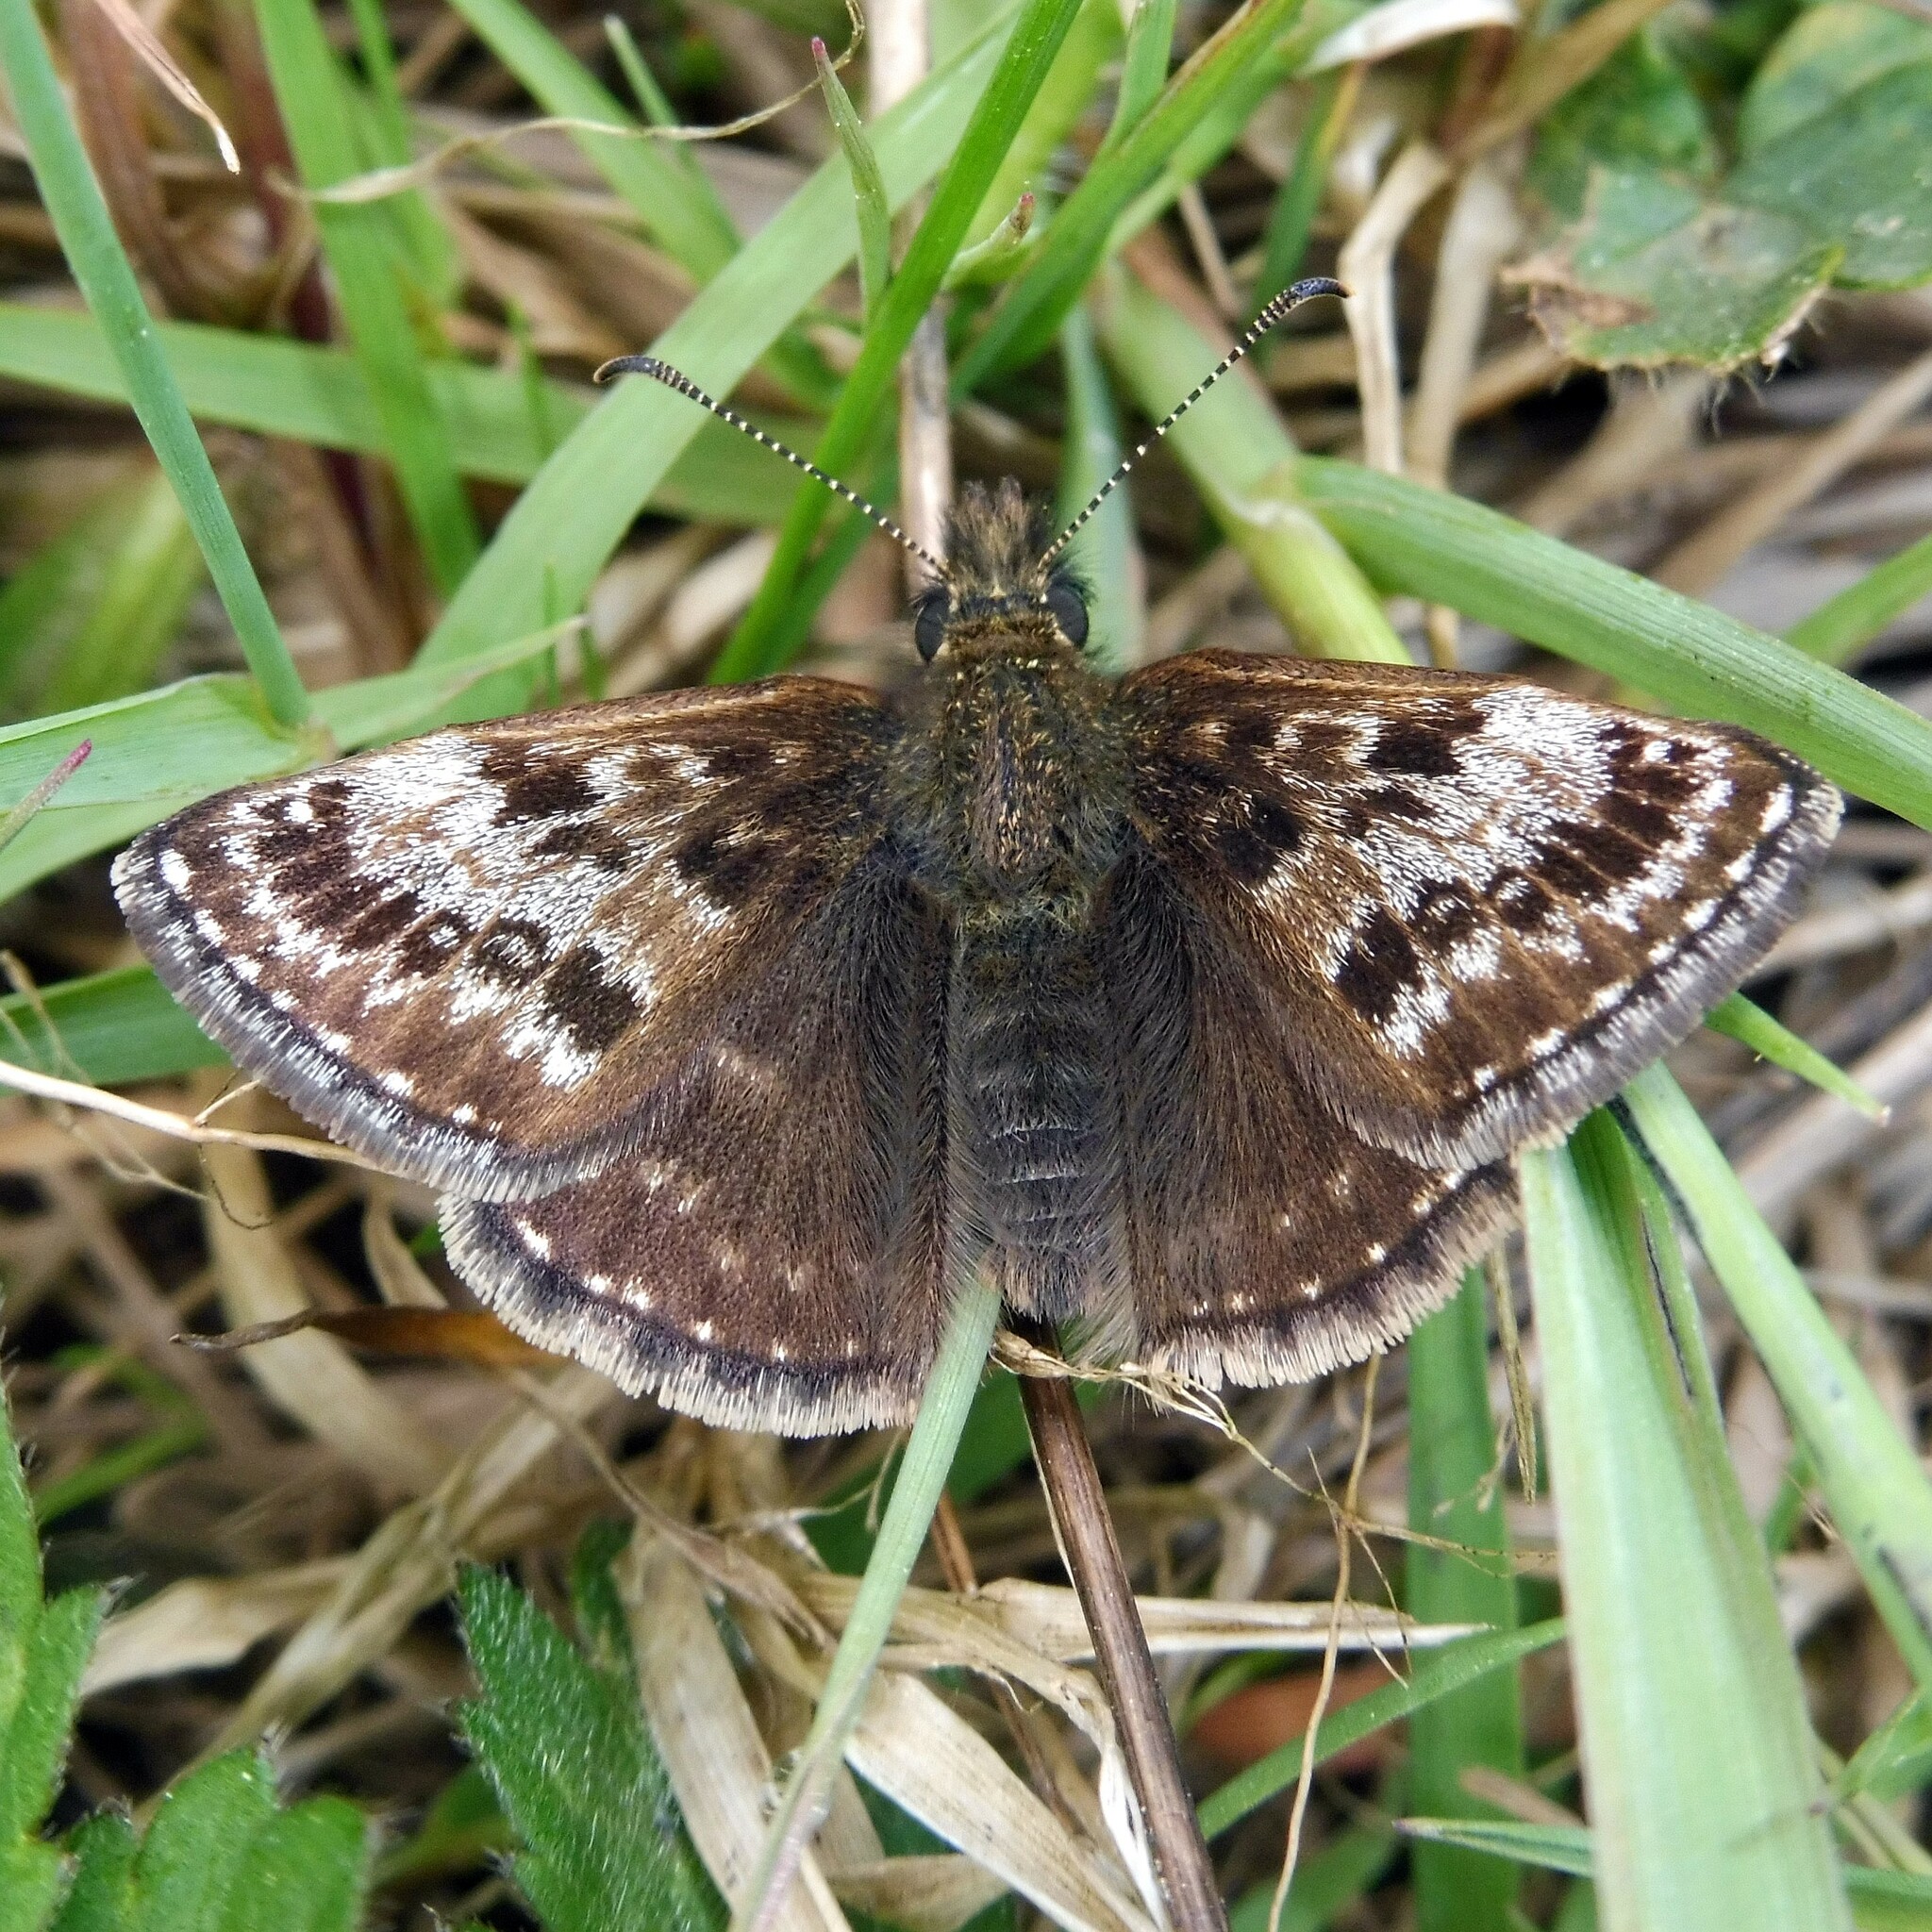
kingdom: Animalia
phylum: Arthropoda
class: Insecta
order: Lepidoptera
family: Hesperiidae
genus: Erynnis
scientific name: Erynnis tages
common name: Dingy skipper
